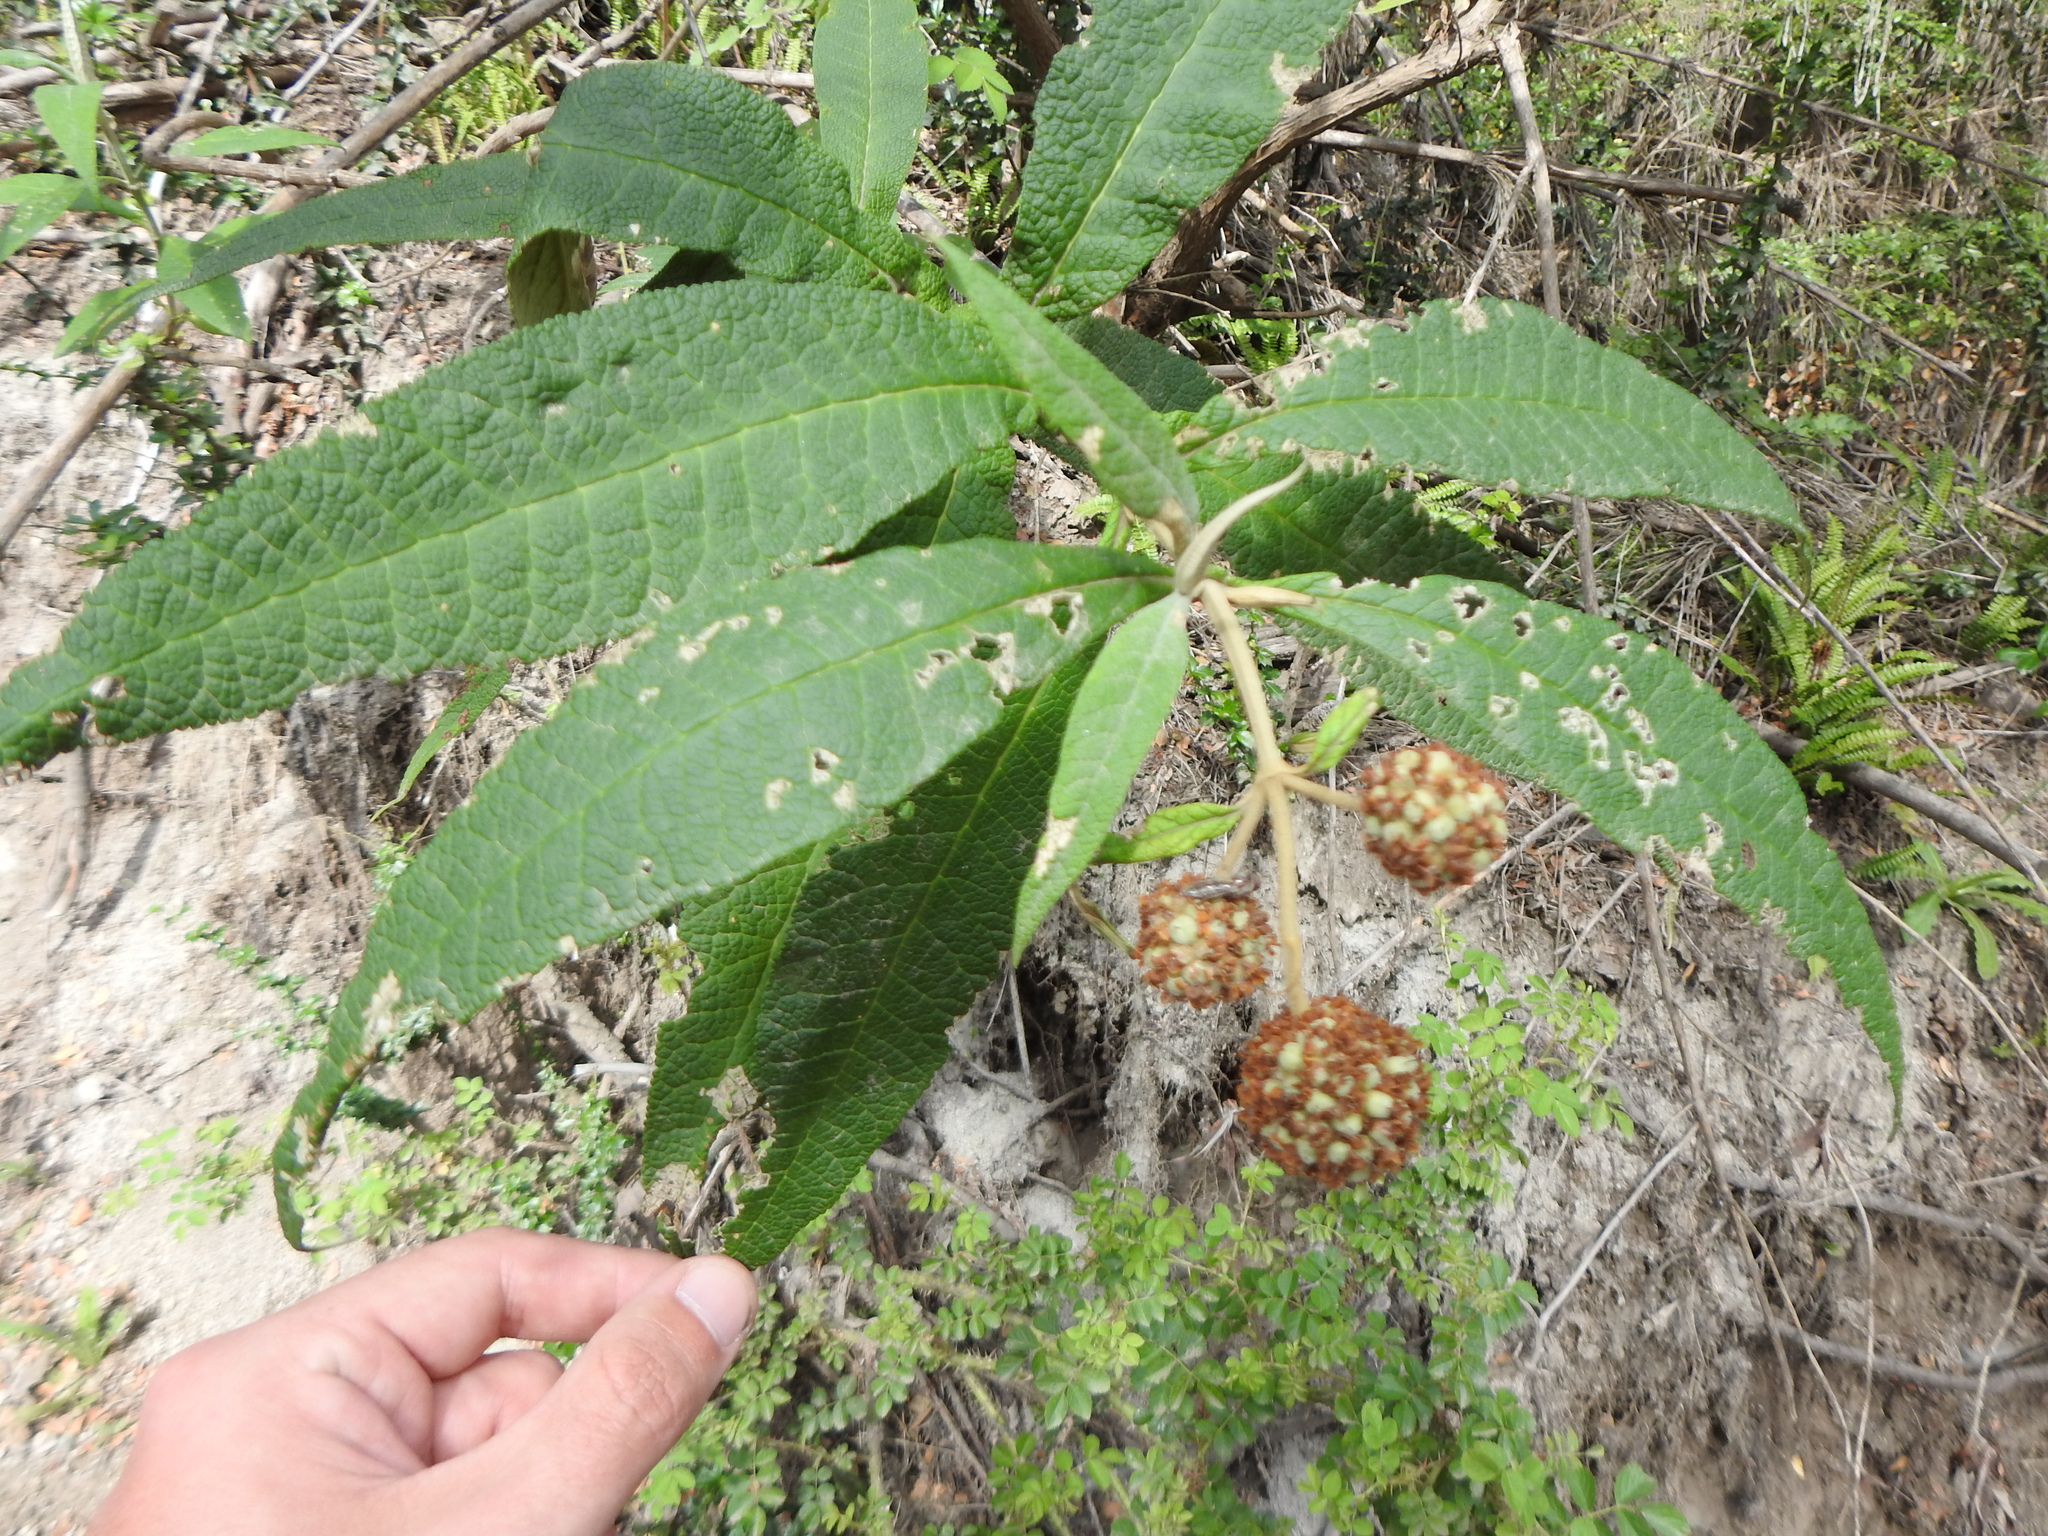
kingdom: Plantae
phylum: Tracheophyta
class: Magnoliopsida
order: Lamiales
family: Scrophulariaceae
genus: Buddleja
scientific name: Buddleja globosa
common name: Orange-ball-tree
